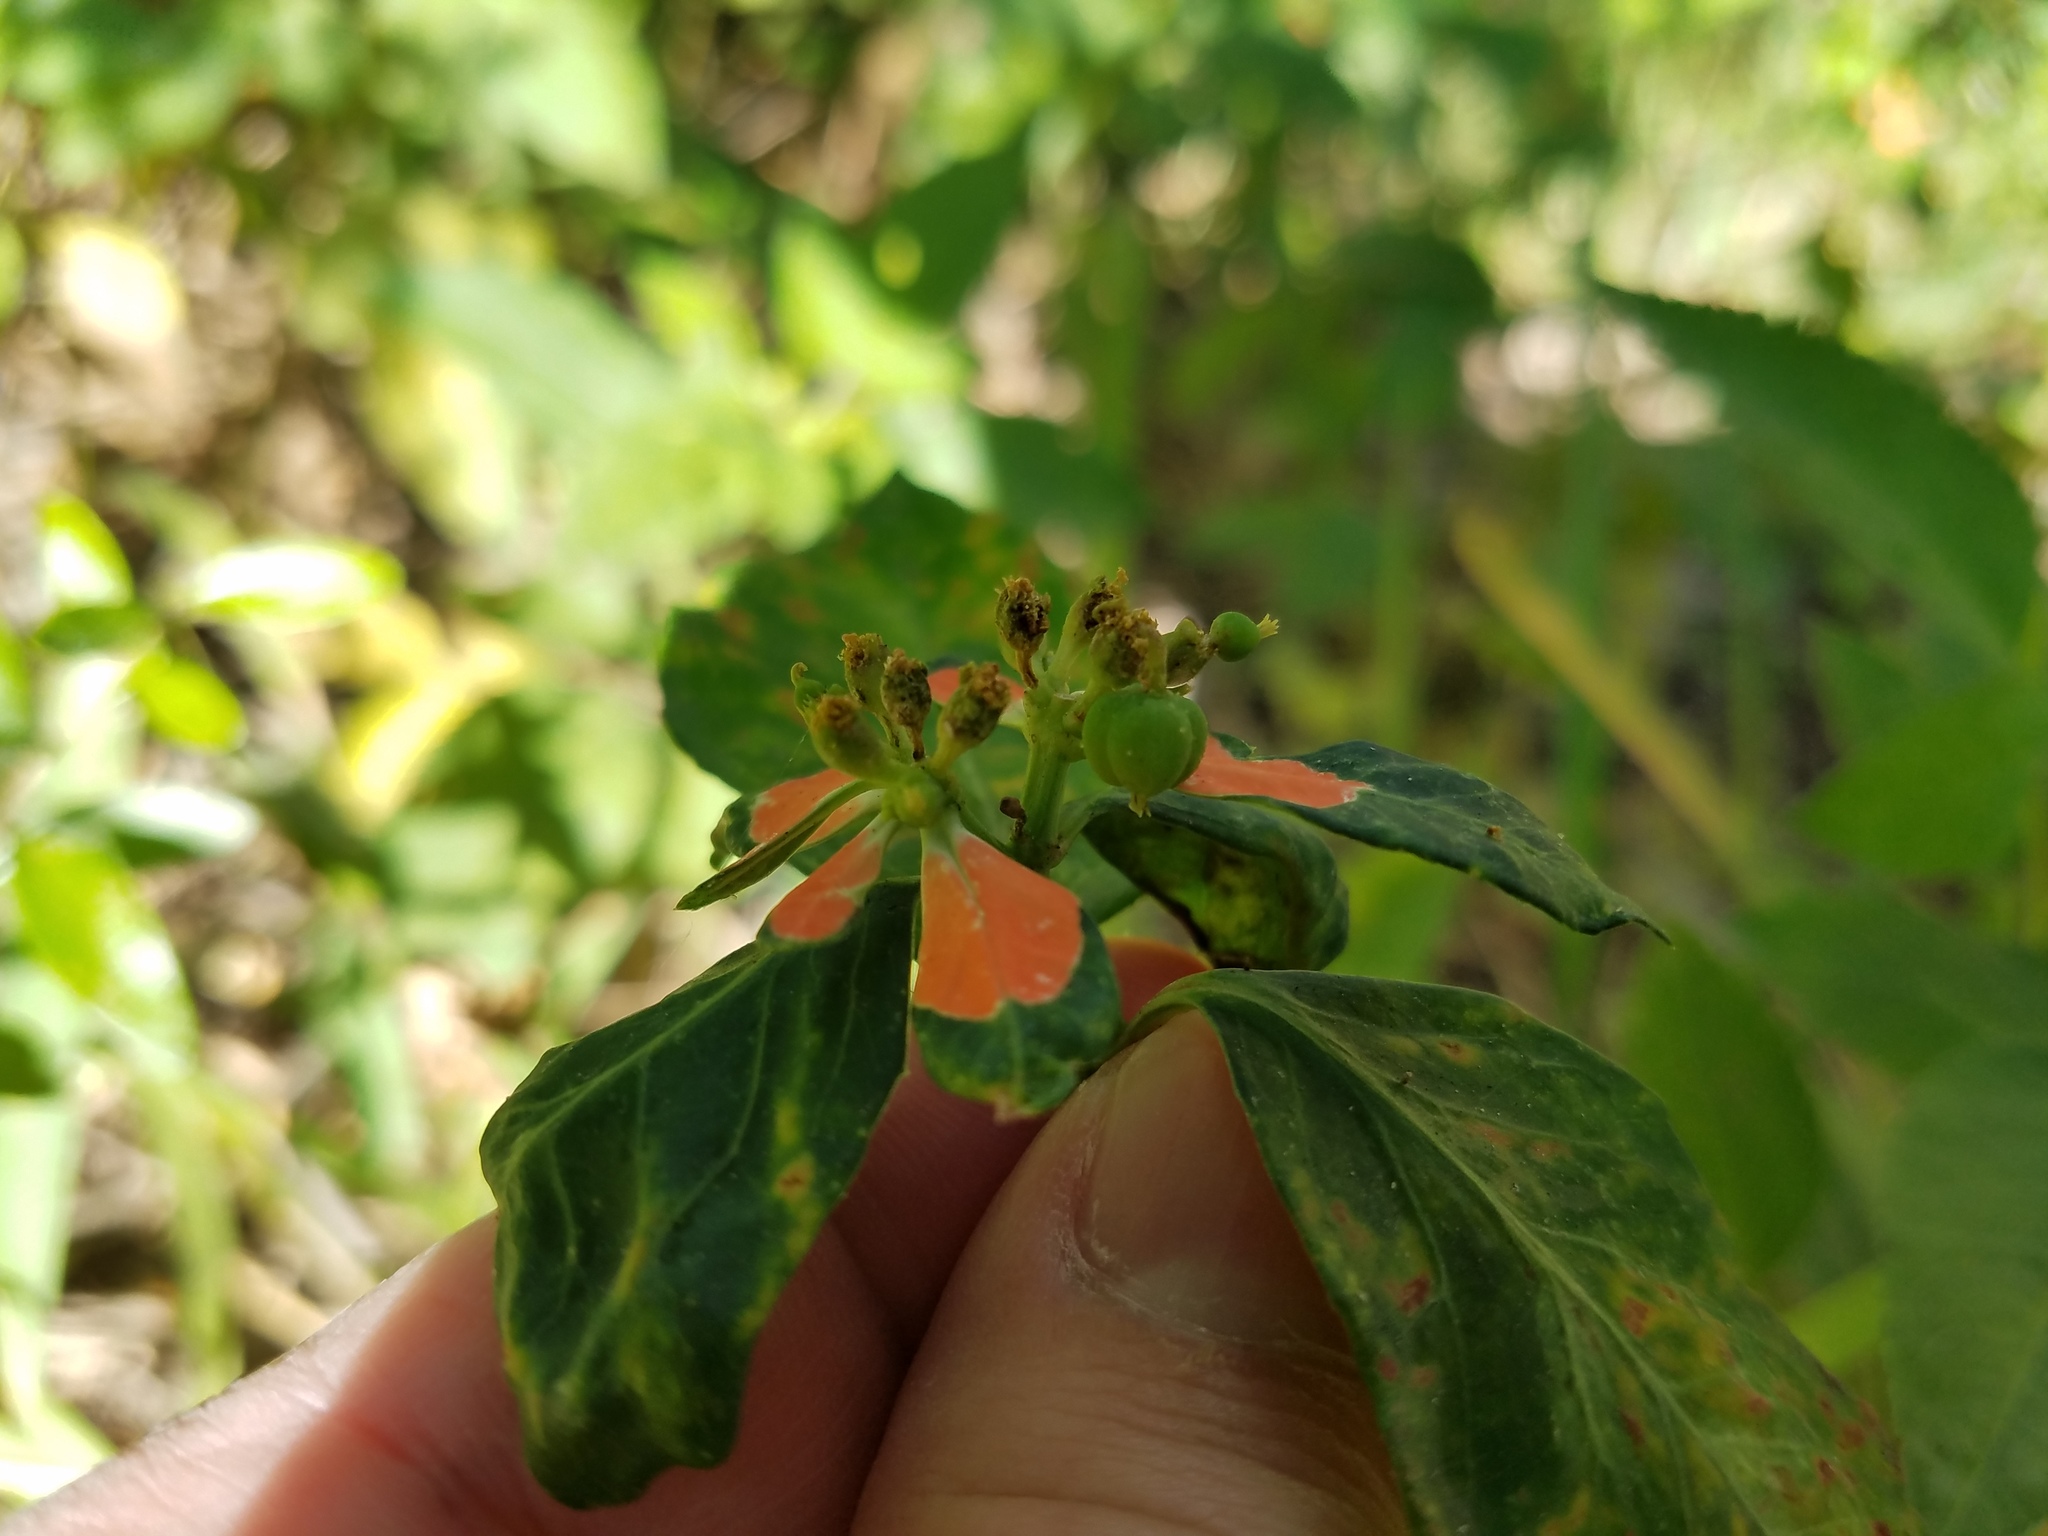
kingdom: Plantae
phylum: Tracheophyta
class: Magnoliopsida
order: Malpighiales
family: Euphorbiaceae
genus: Euphorbia
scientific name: Euphorbia heterophylla
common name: Mexican fireplant
